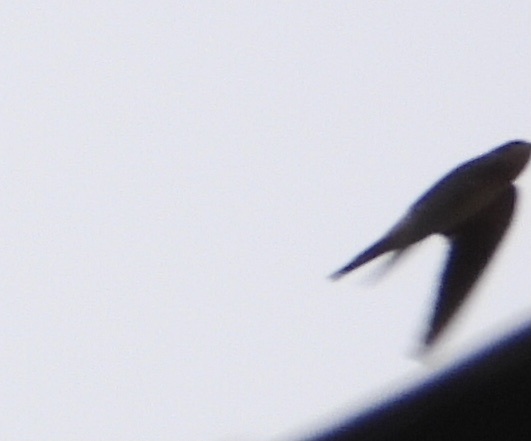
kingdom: Animalia
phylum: Chordata
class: Aves
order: Passeriformes
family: Hirundinidae
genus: Hirundo
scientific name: Hirundo rustica
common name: Barn swallow
